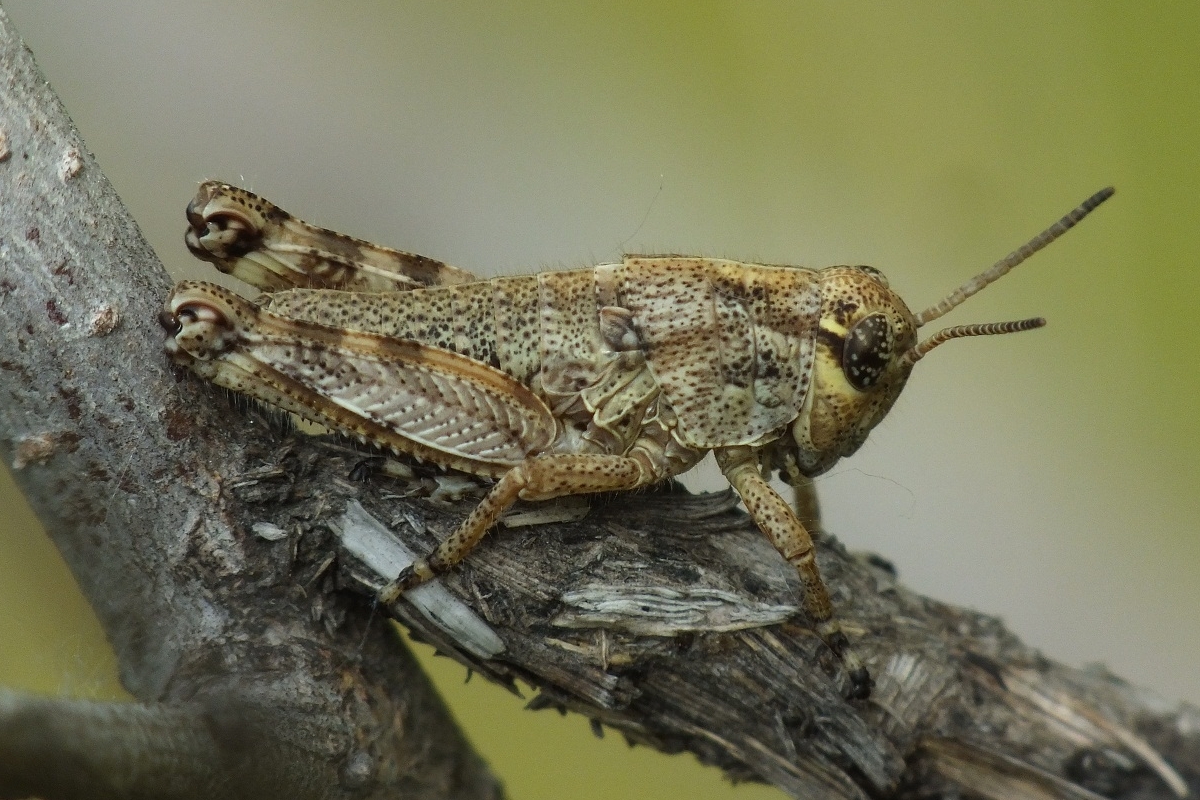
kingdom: Animalia
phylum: Arthropoda
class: Insecta
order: Orthoptera
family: Acrididae
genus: Podisma
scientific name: Podisma pedestris
